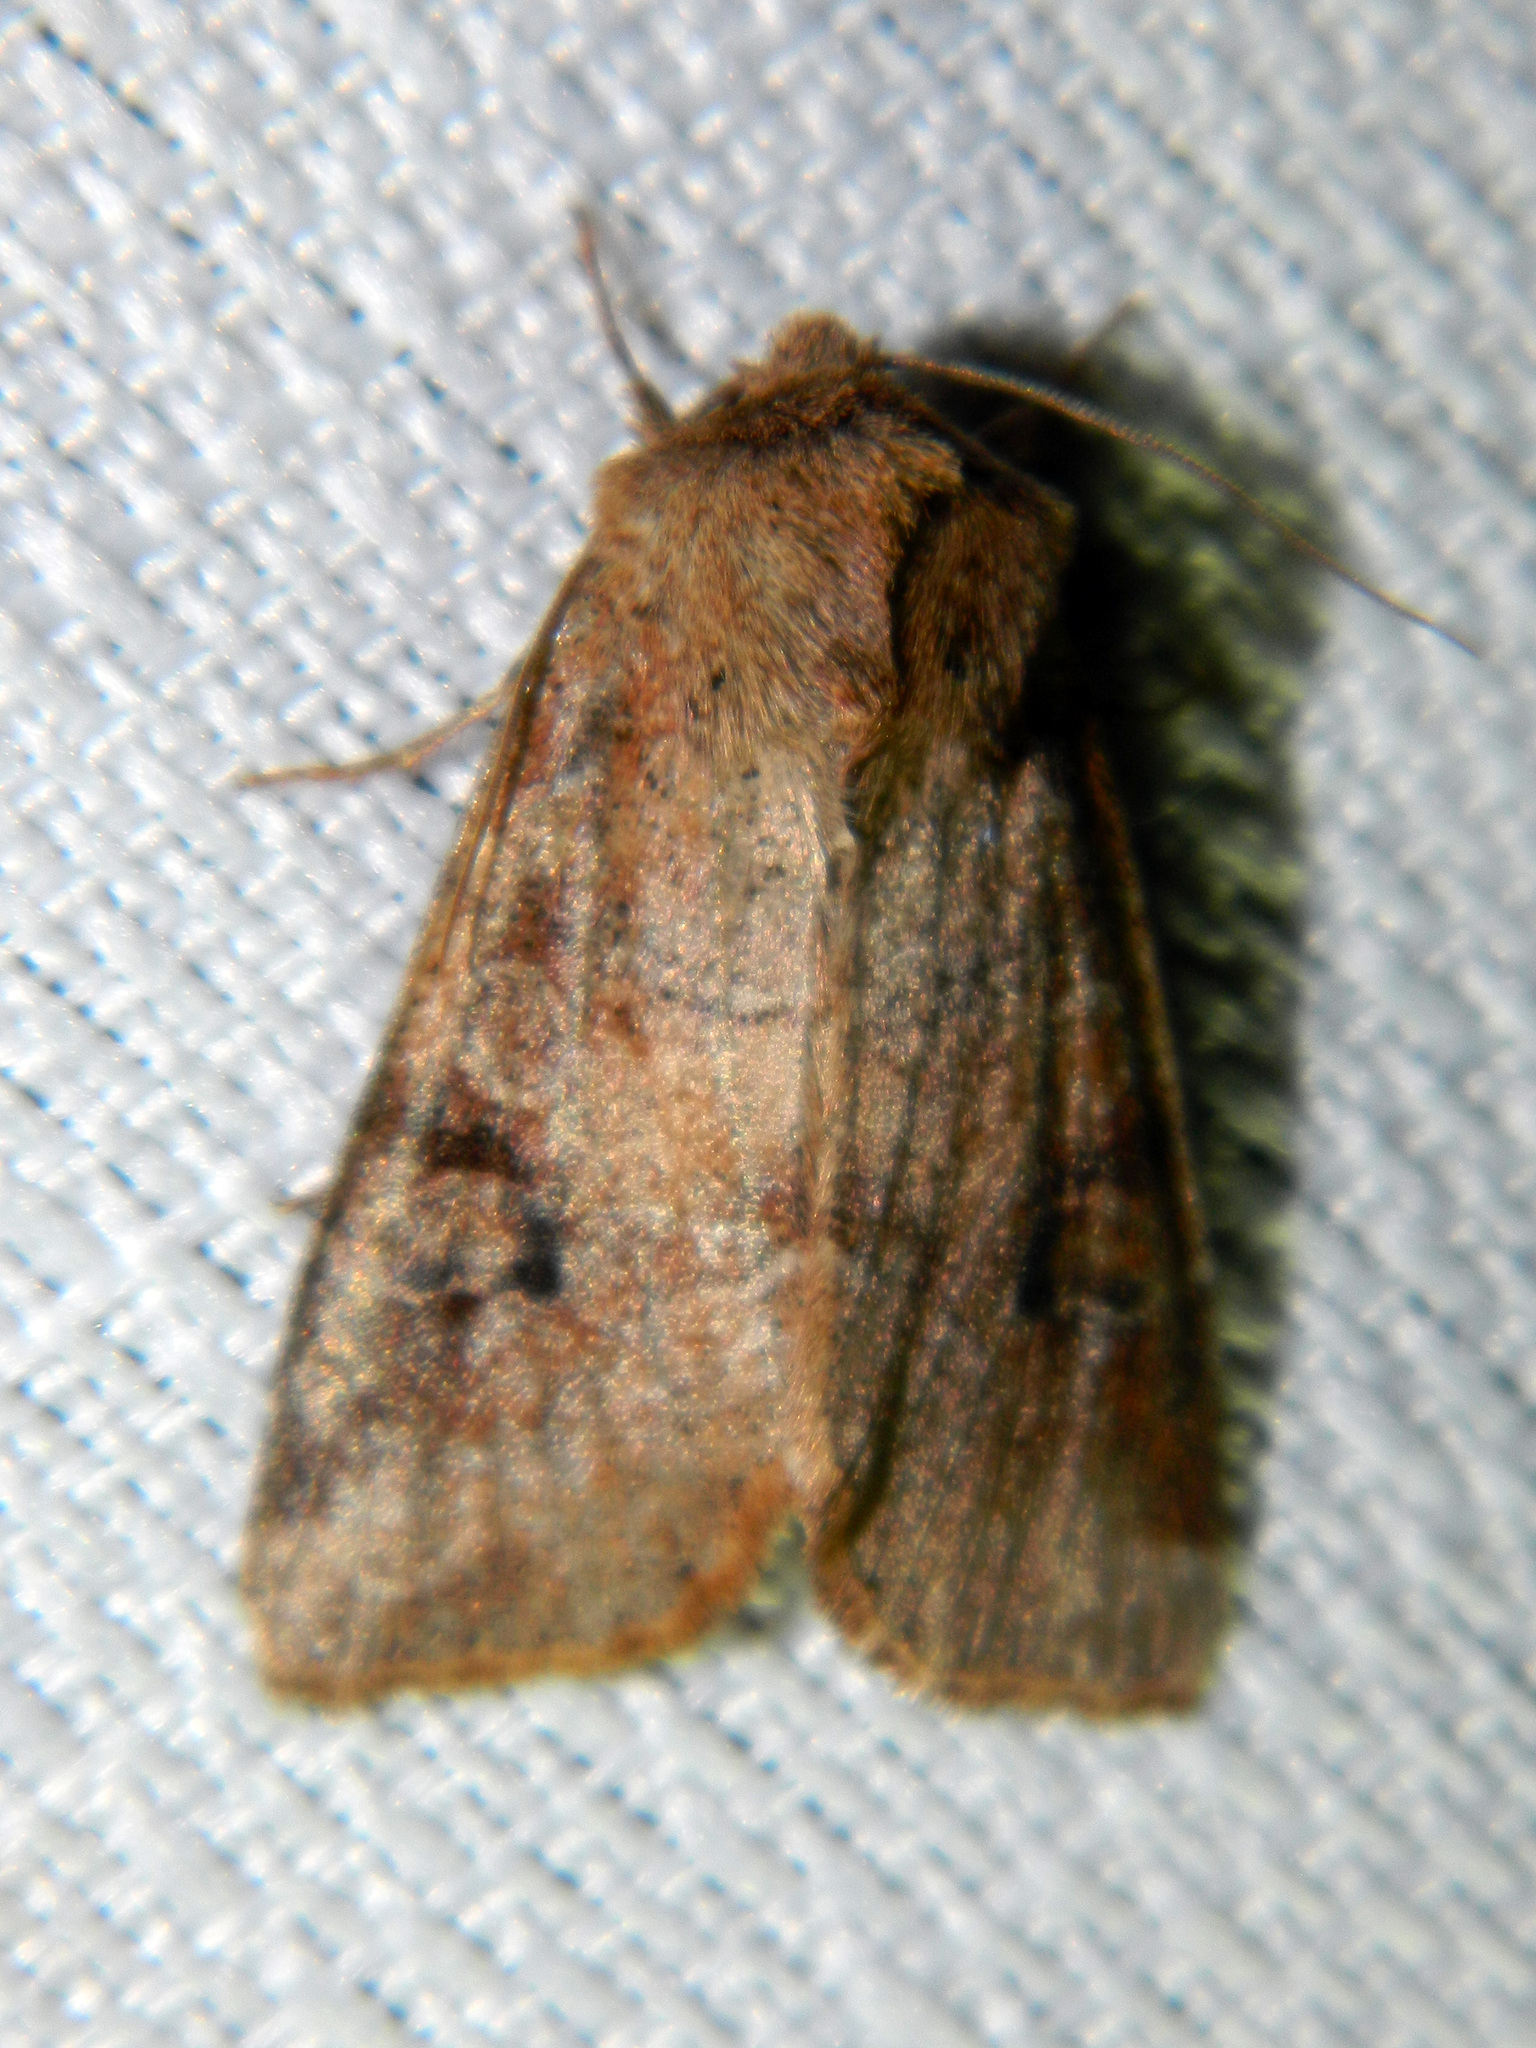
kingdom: Animalia
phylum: Arthropoda
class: Insecta
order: Lepidoptera
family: Noctuidae
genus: Crocigrapha
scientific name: Crocigrapha normani
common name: Norman's quaker
